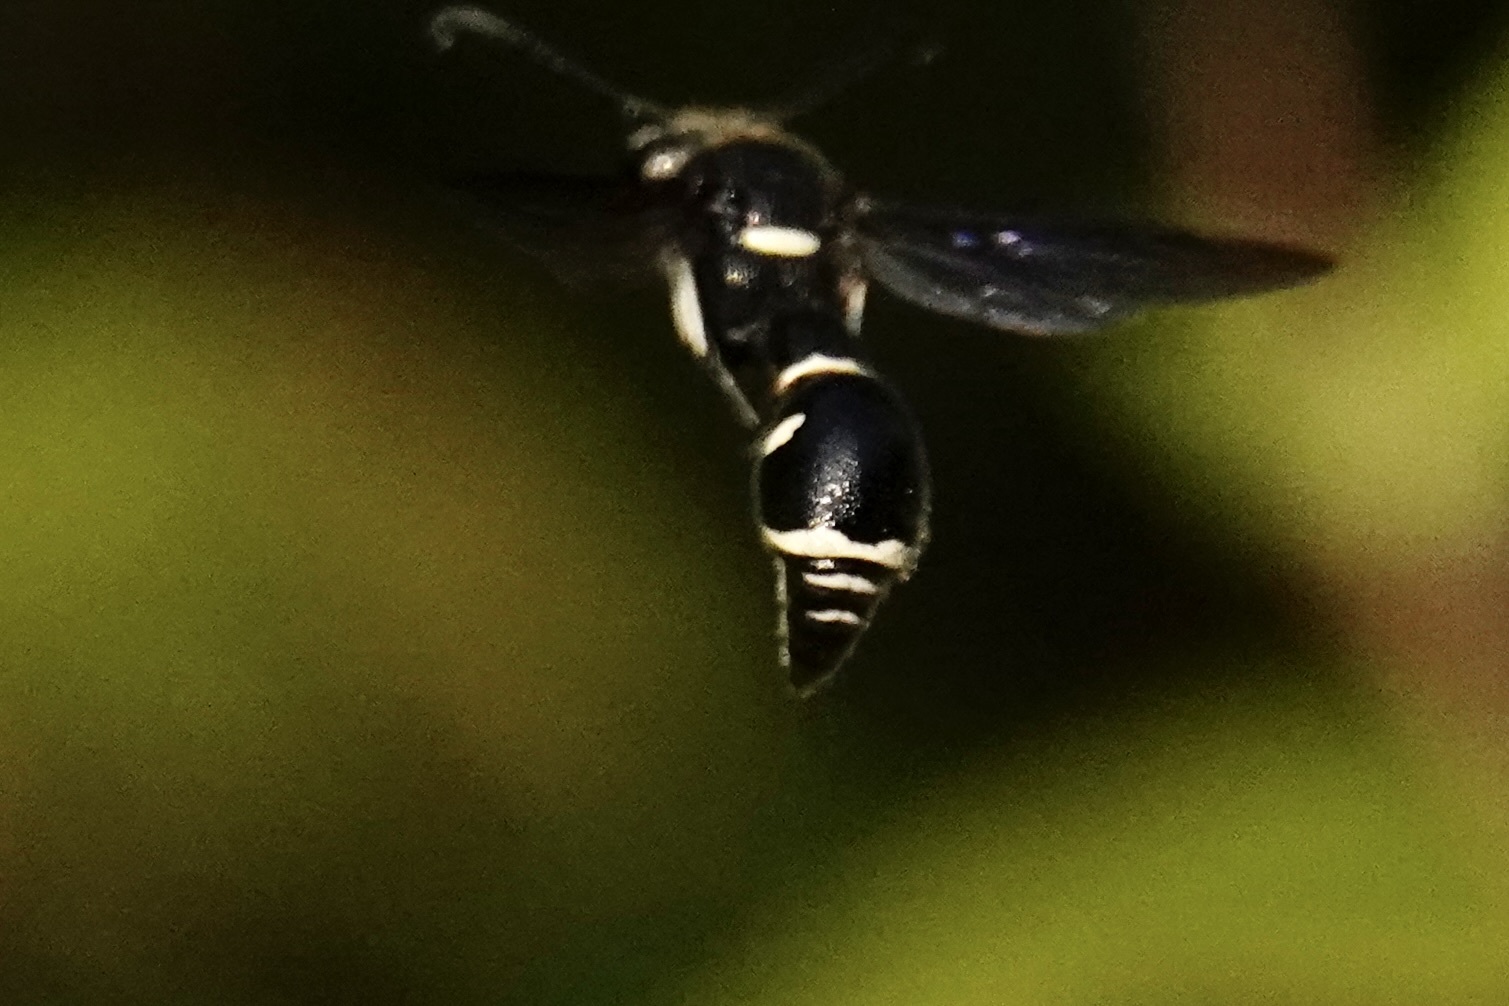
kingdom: Animalia
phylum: Arthropoda
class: Insecta
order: Hymenoptera
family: Vespidae
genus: Eumenes
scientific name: Eumenes fraternus
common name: Fraternal potter wasp
